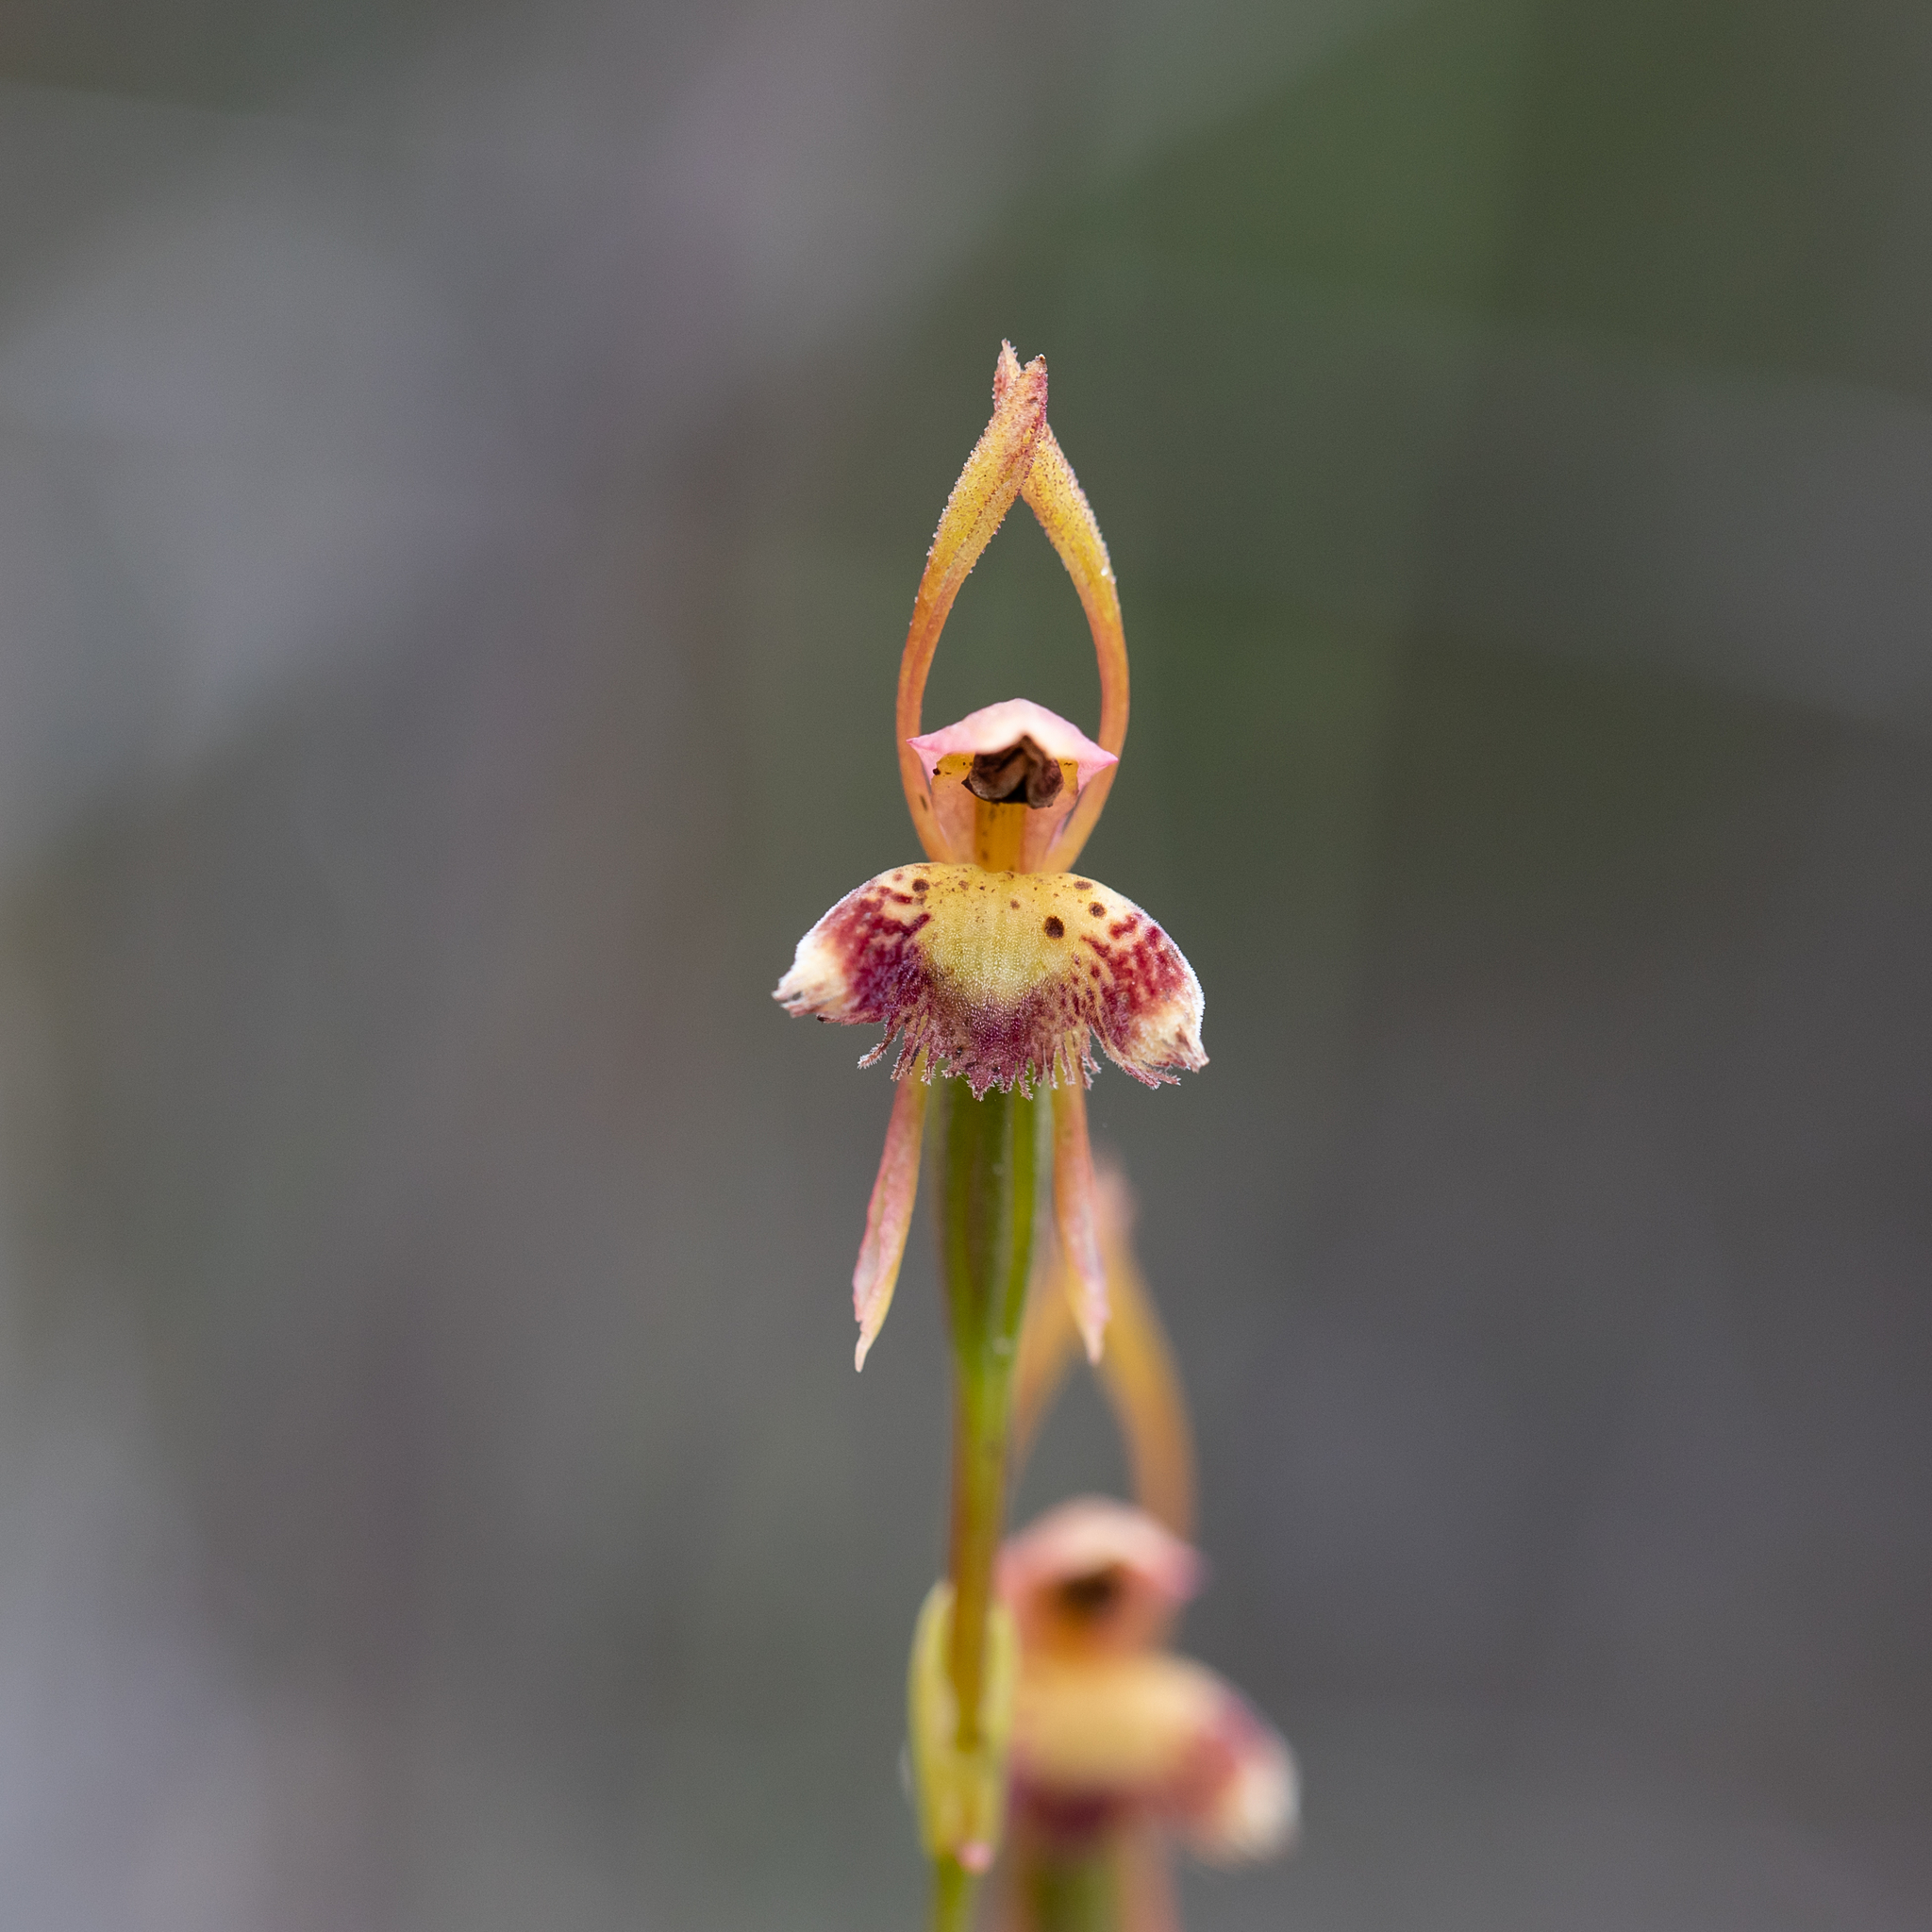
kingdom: Plantae
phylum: Tracheophyta
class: Liliopsida
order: Asparagales
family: Orchidaceae
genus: Leporella
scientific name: Leporella fimbriata
